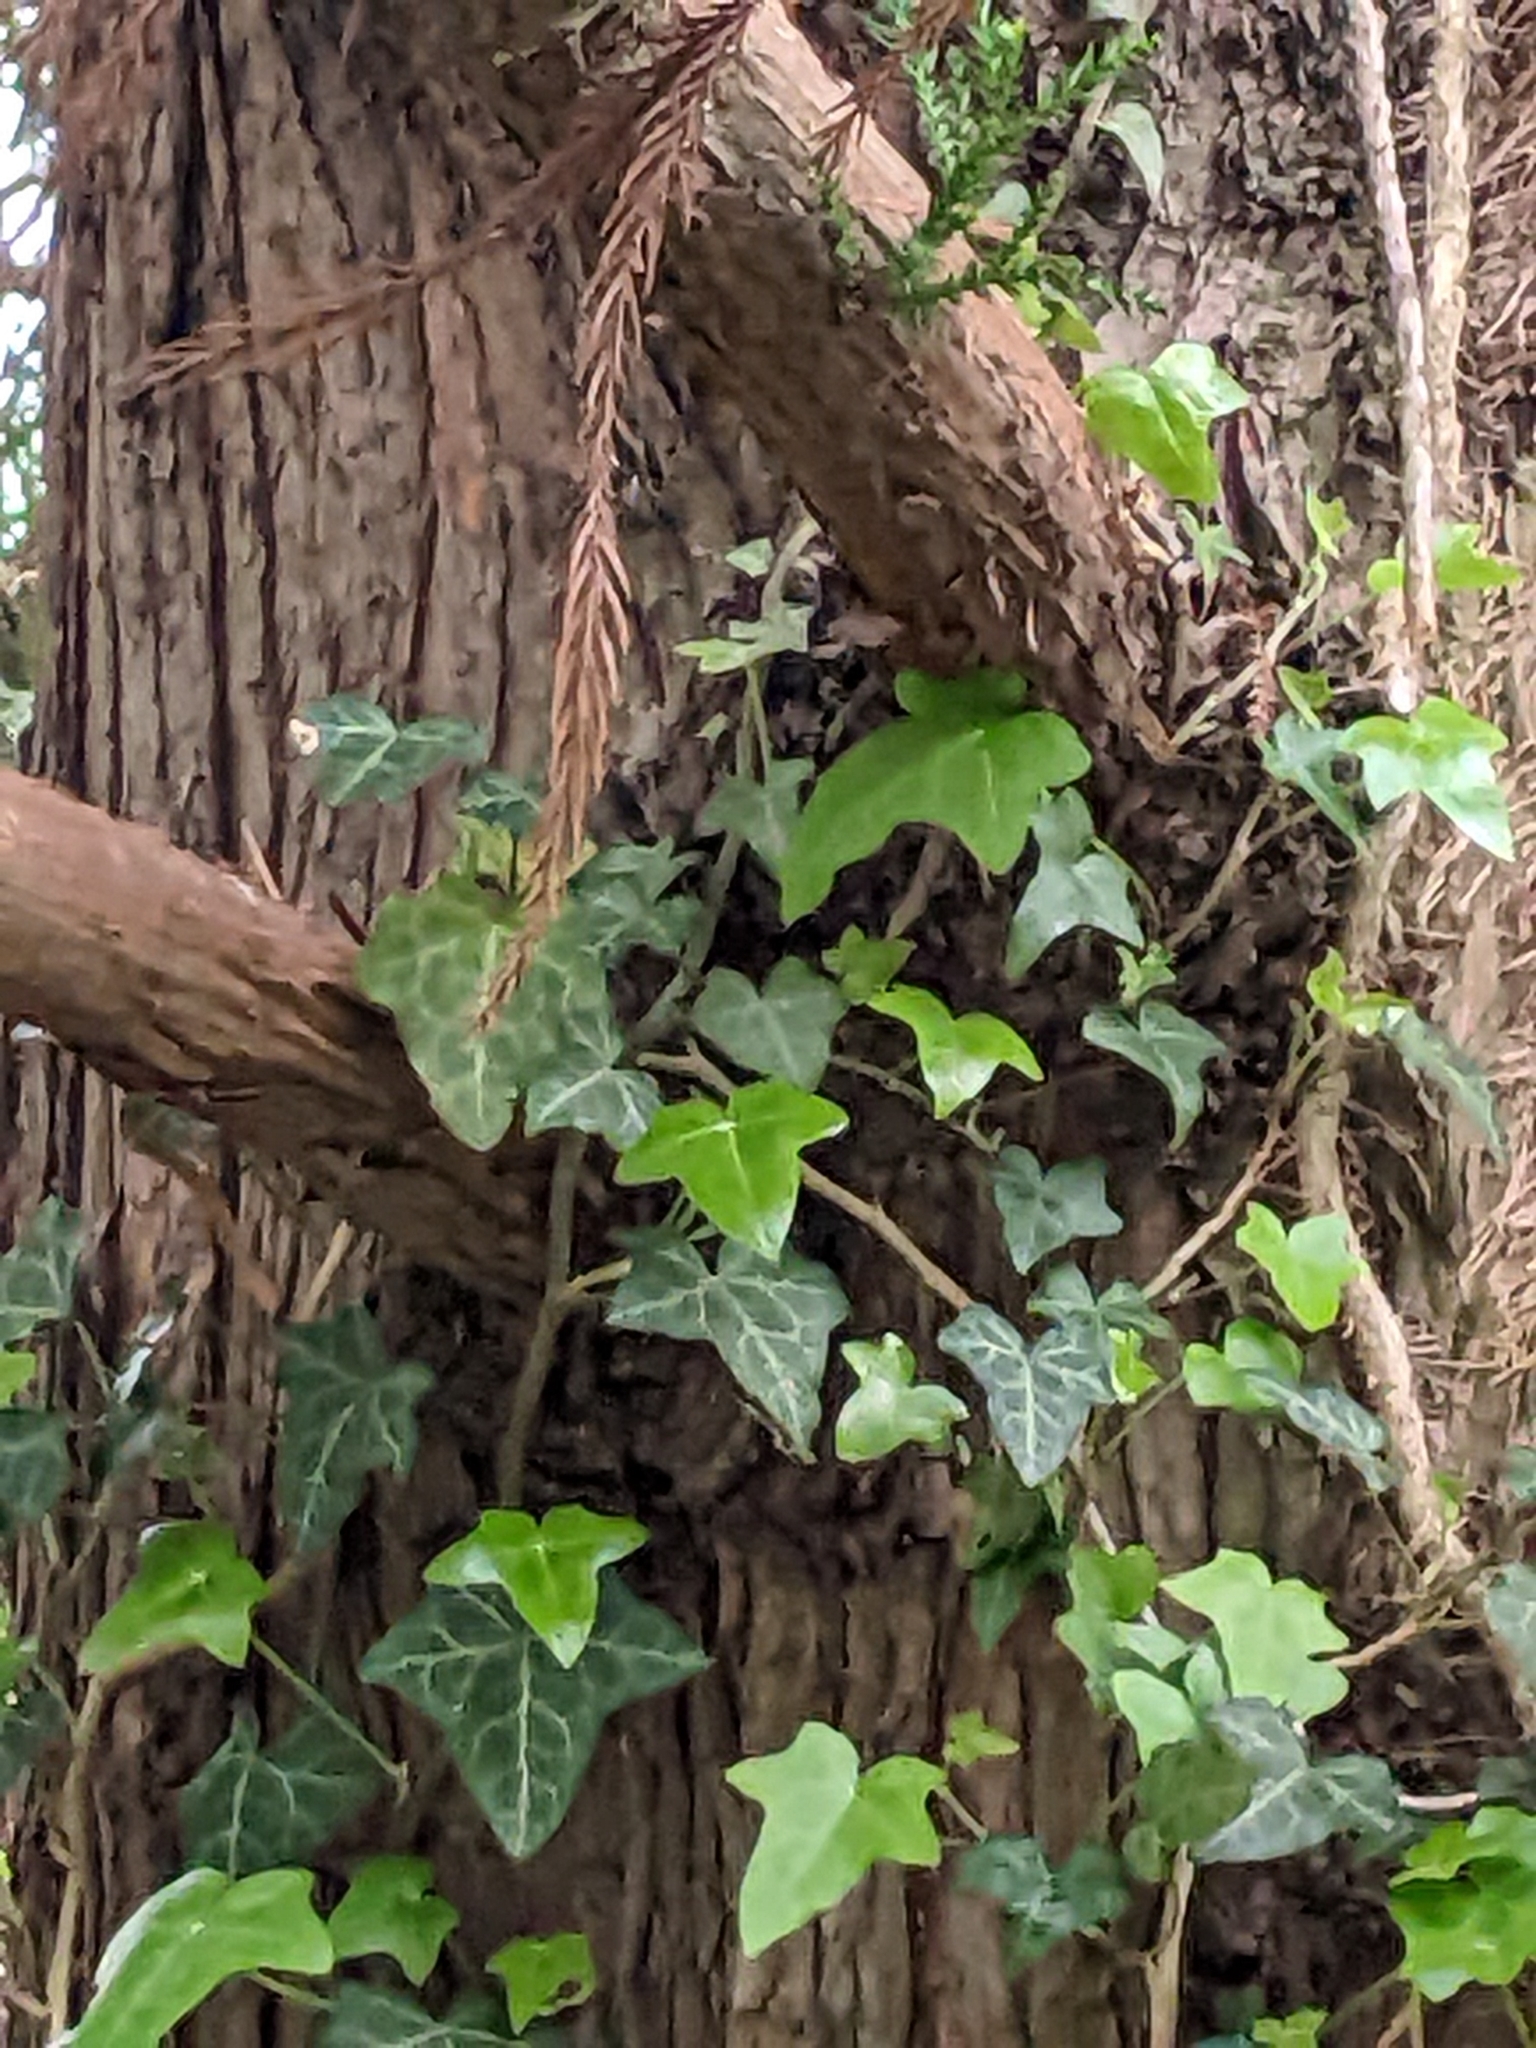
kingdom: Plantae
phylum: Tracheophyta
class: Magnoliopsida
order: Apiales
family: Araliaceae
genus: Hedera
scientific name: Hedera helix
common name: Ivy
